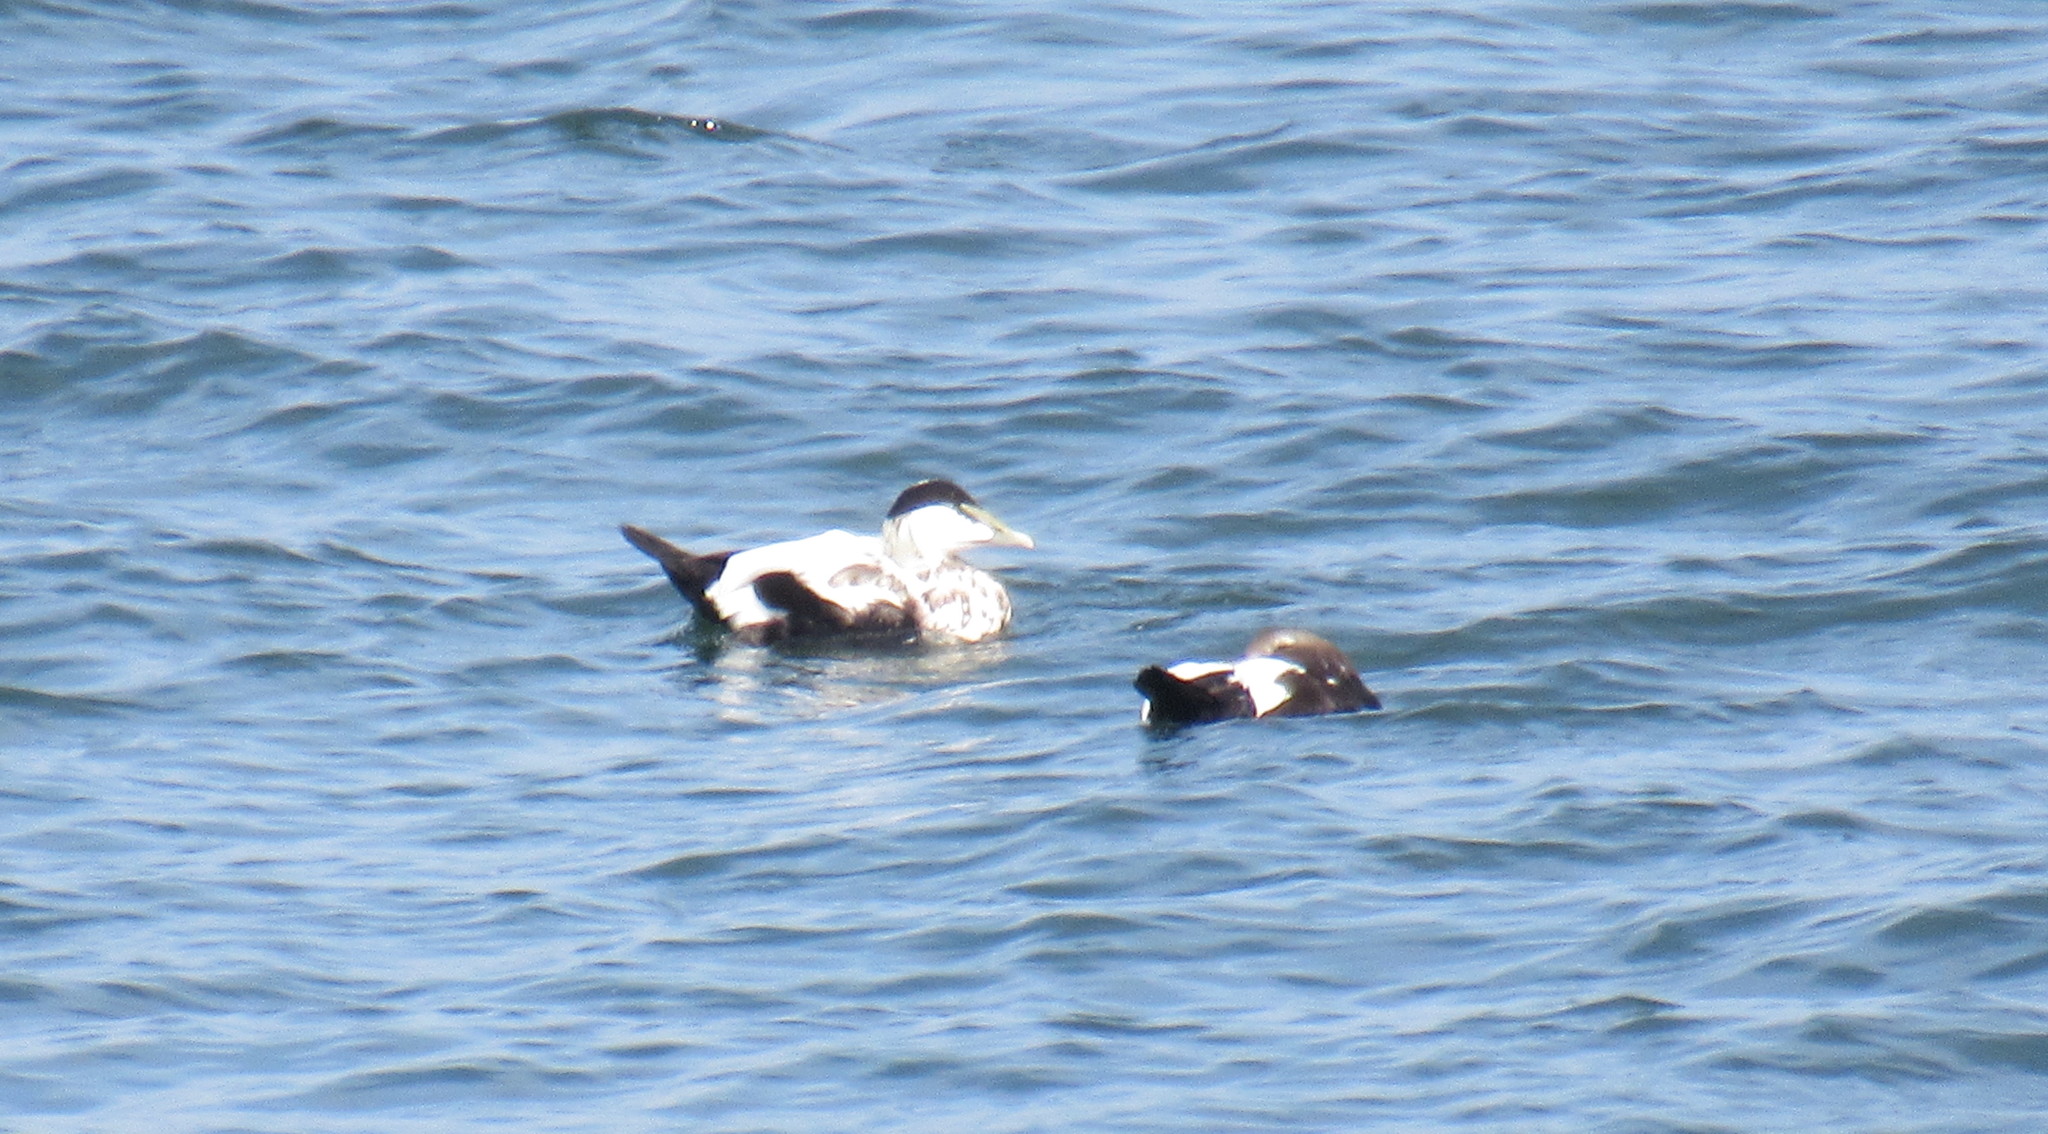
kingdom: Animalia
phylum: Chordata
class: Aves
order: Anseriformes
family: Anatidae
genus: Somateria
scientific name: Somateria mollissima
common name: Common eider
